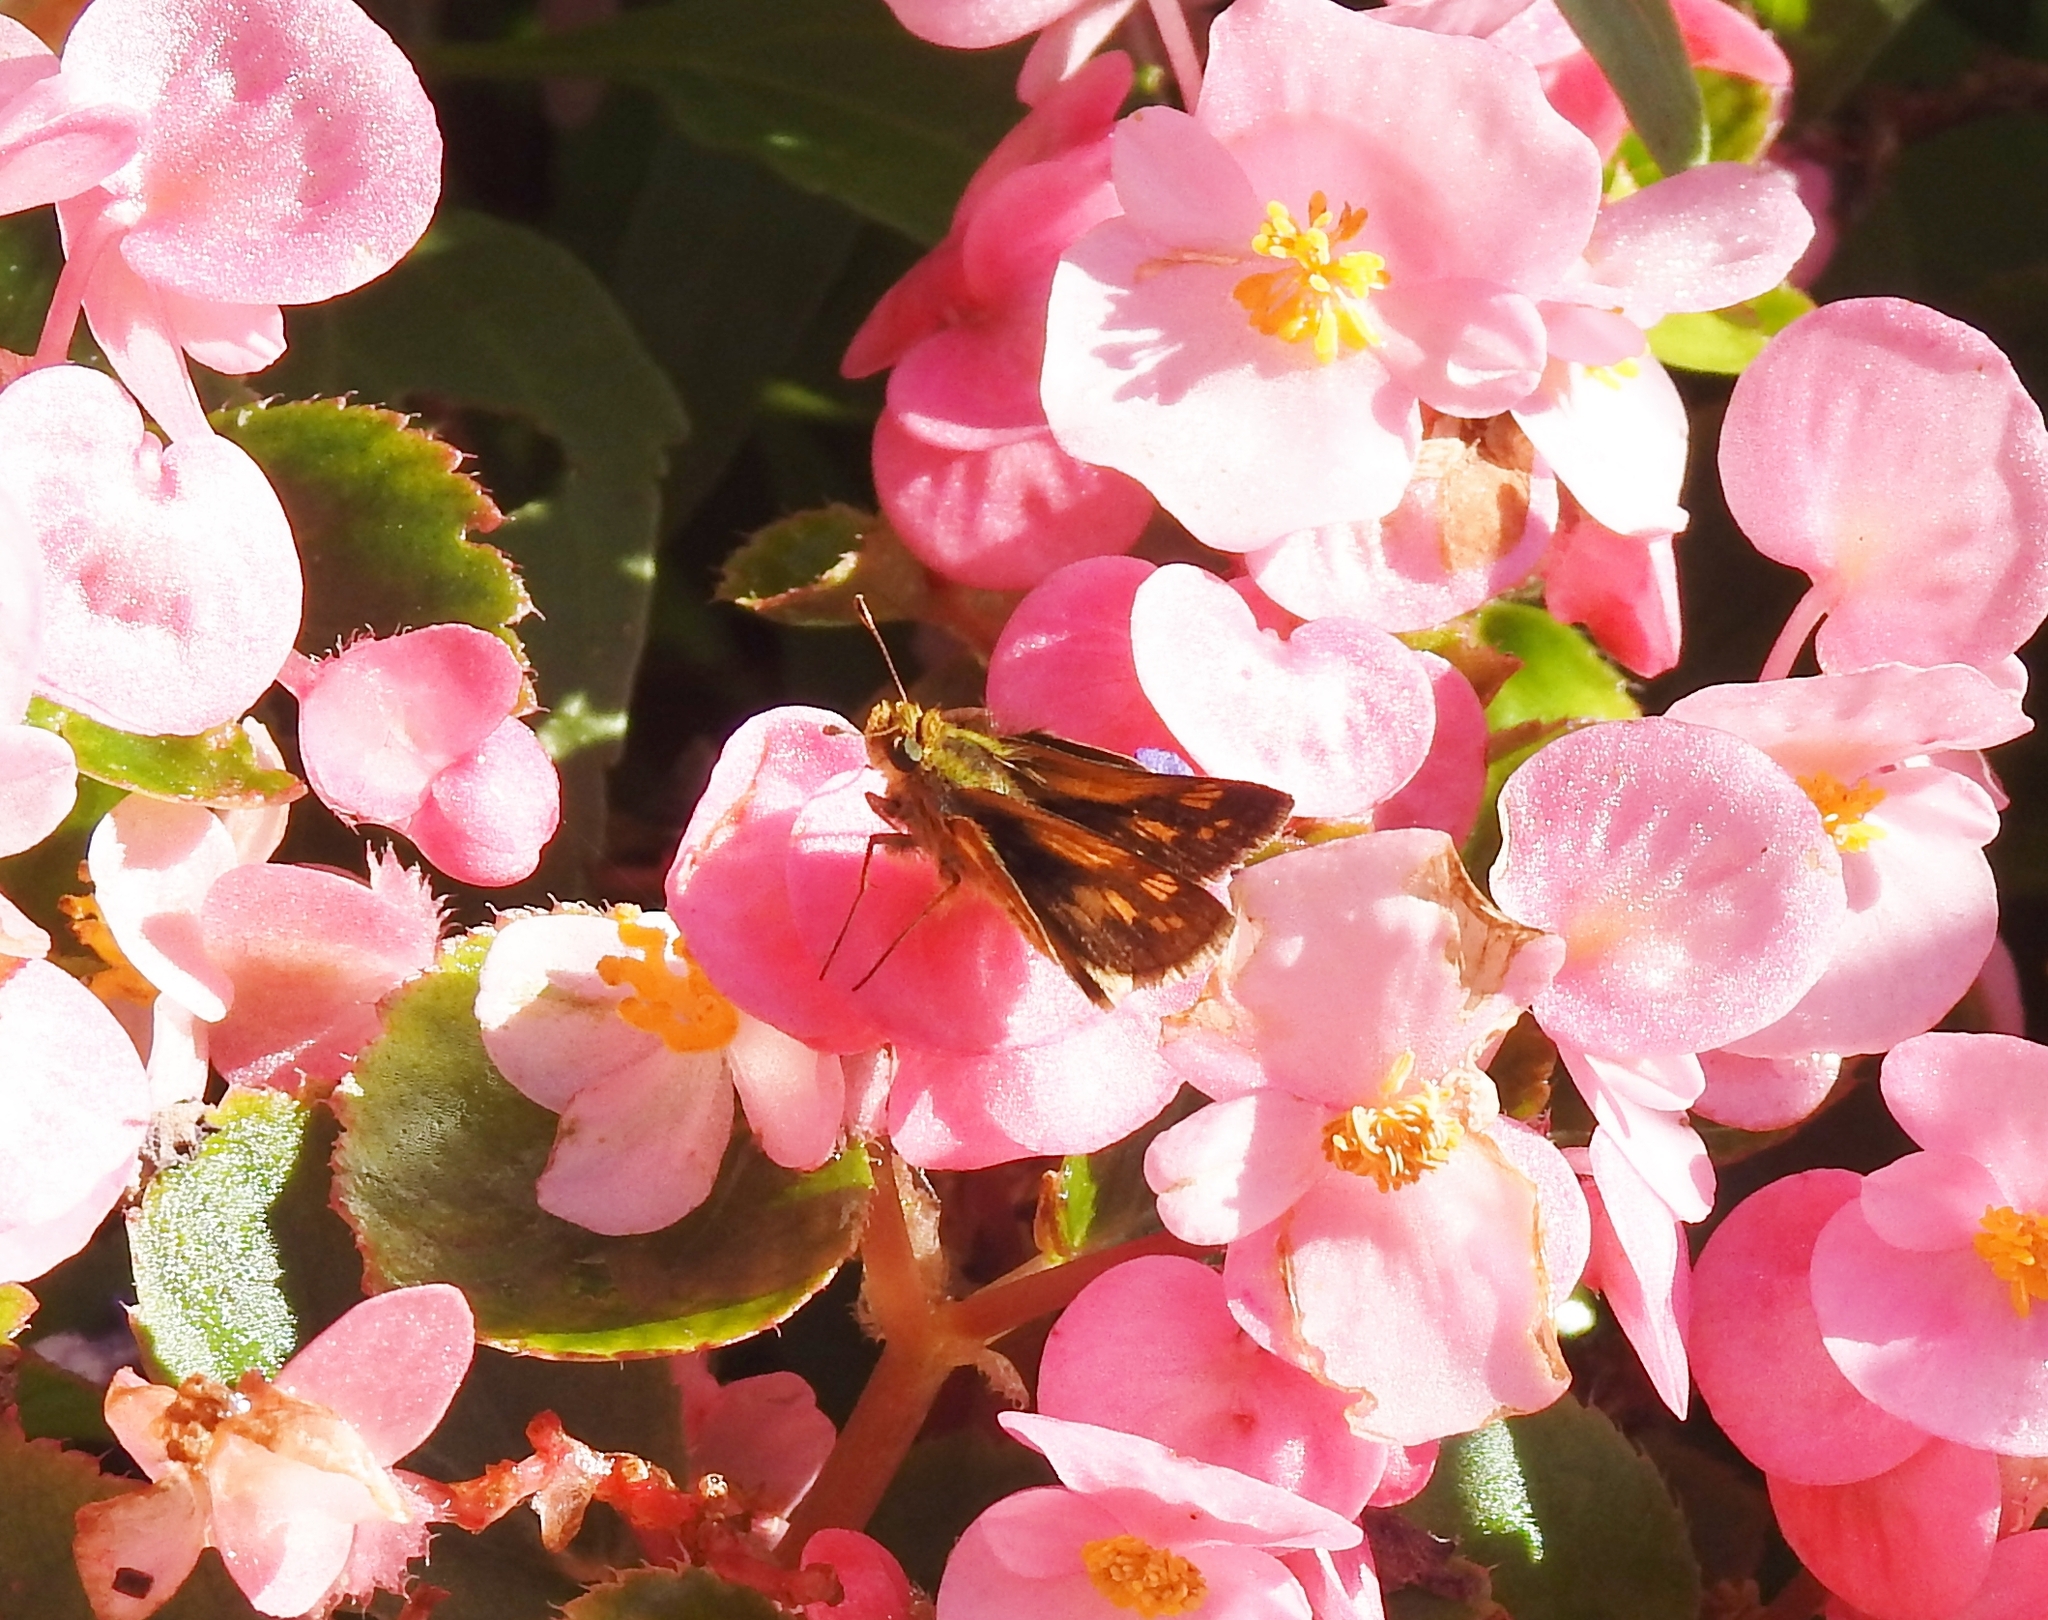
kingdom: Animalia
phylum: Arthropoda
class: Insecta
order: Lepidoptera
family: Hesperiidae
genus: Polites
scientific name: Polites coras
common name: Peck's skipper
